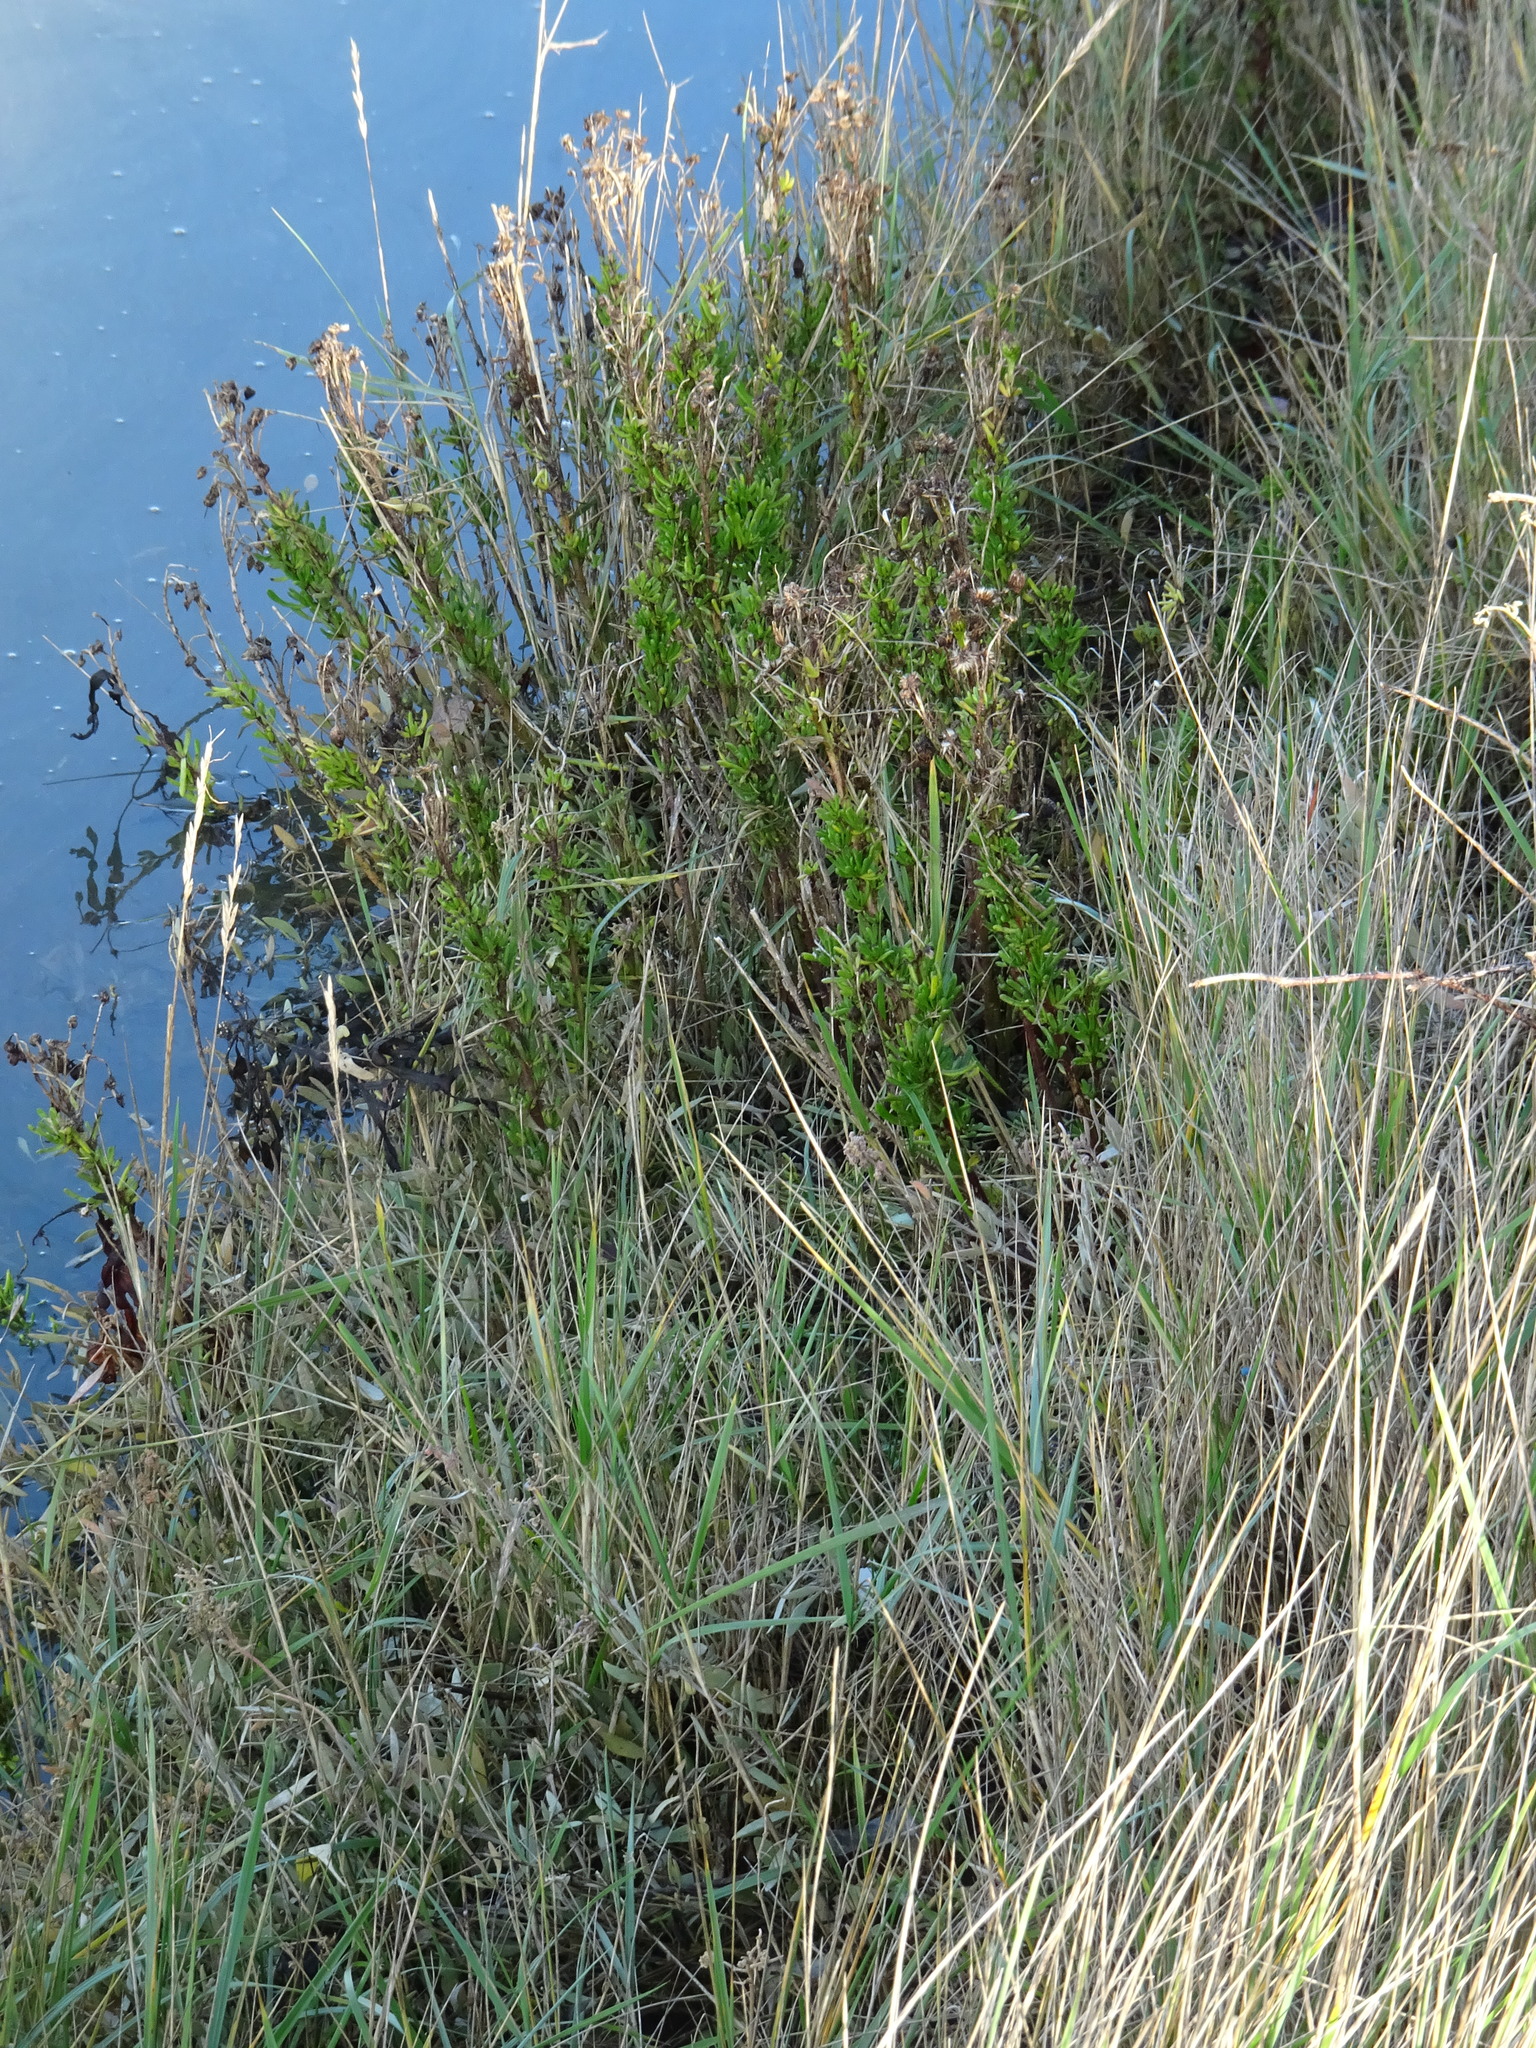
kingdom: Plantae
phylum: Tracheophyta
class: Magnoliopsida
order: Asterales
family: Asteraceae
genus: Limbarda
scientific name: Limbarda crithmoides
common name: Golden samphire
